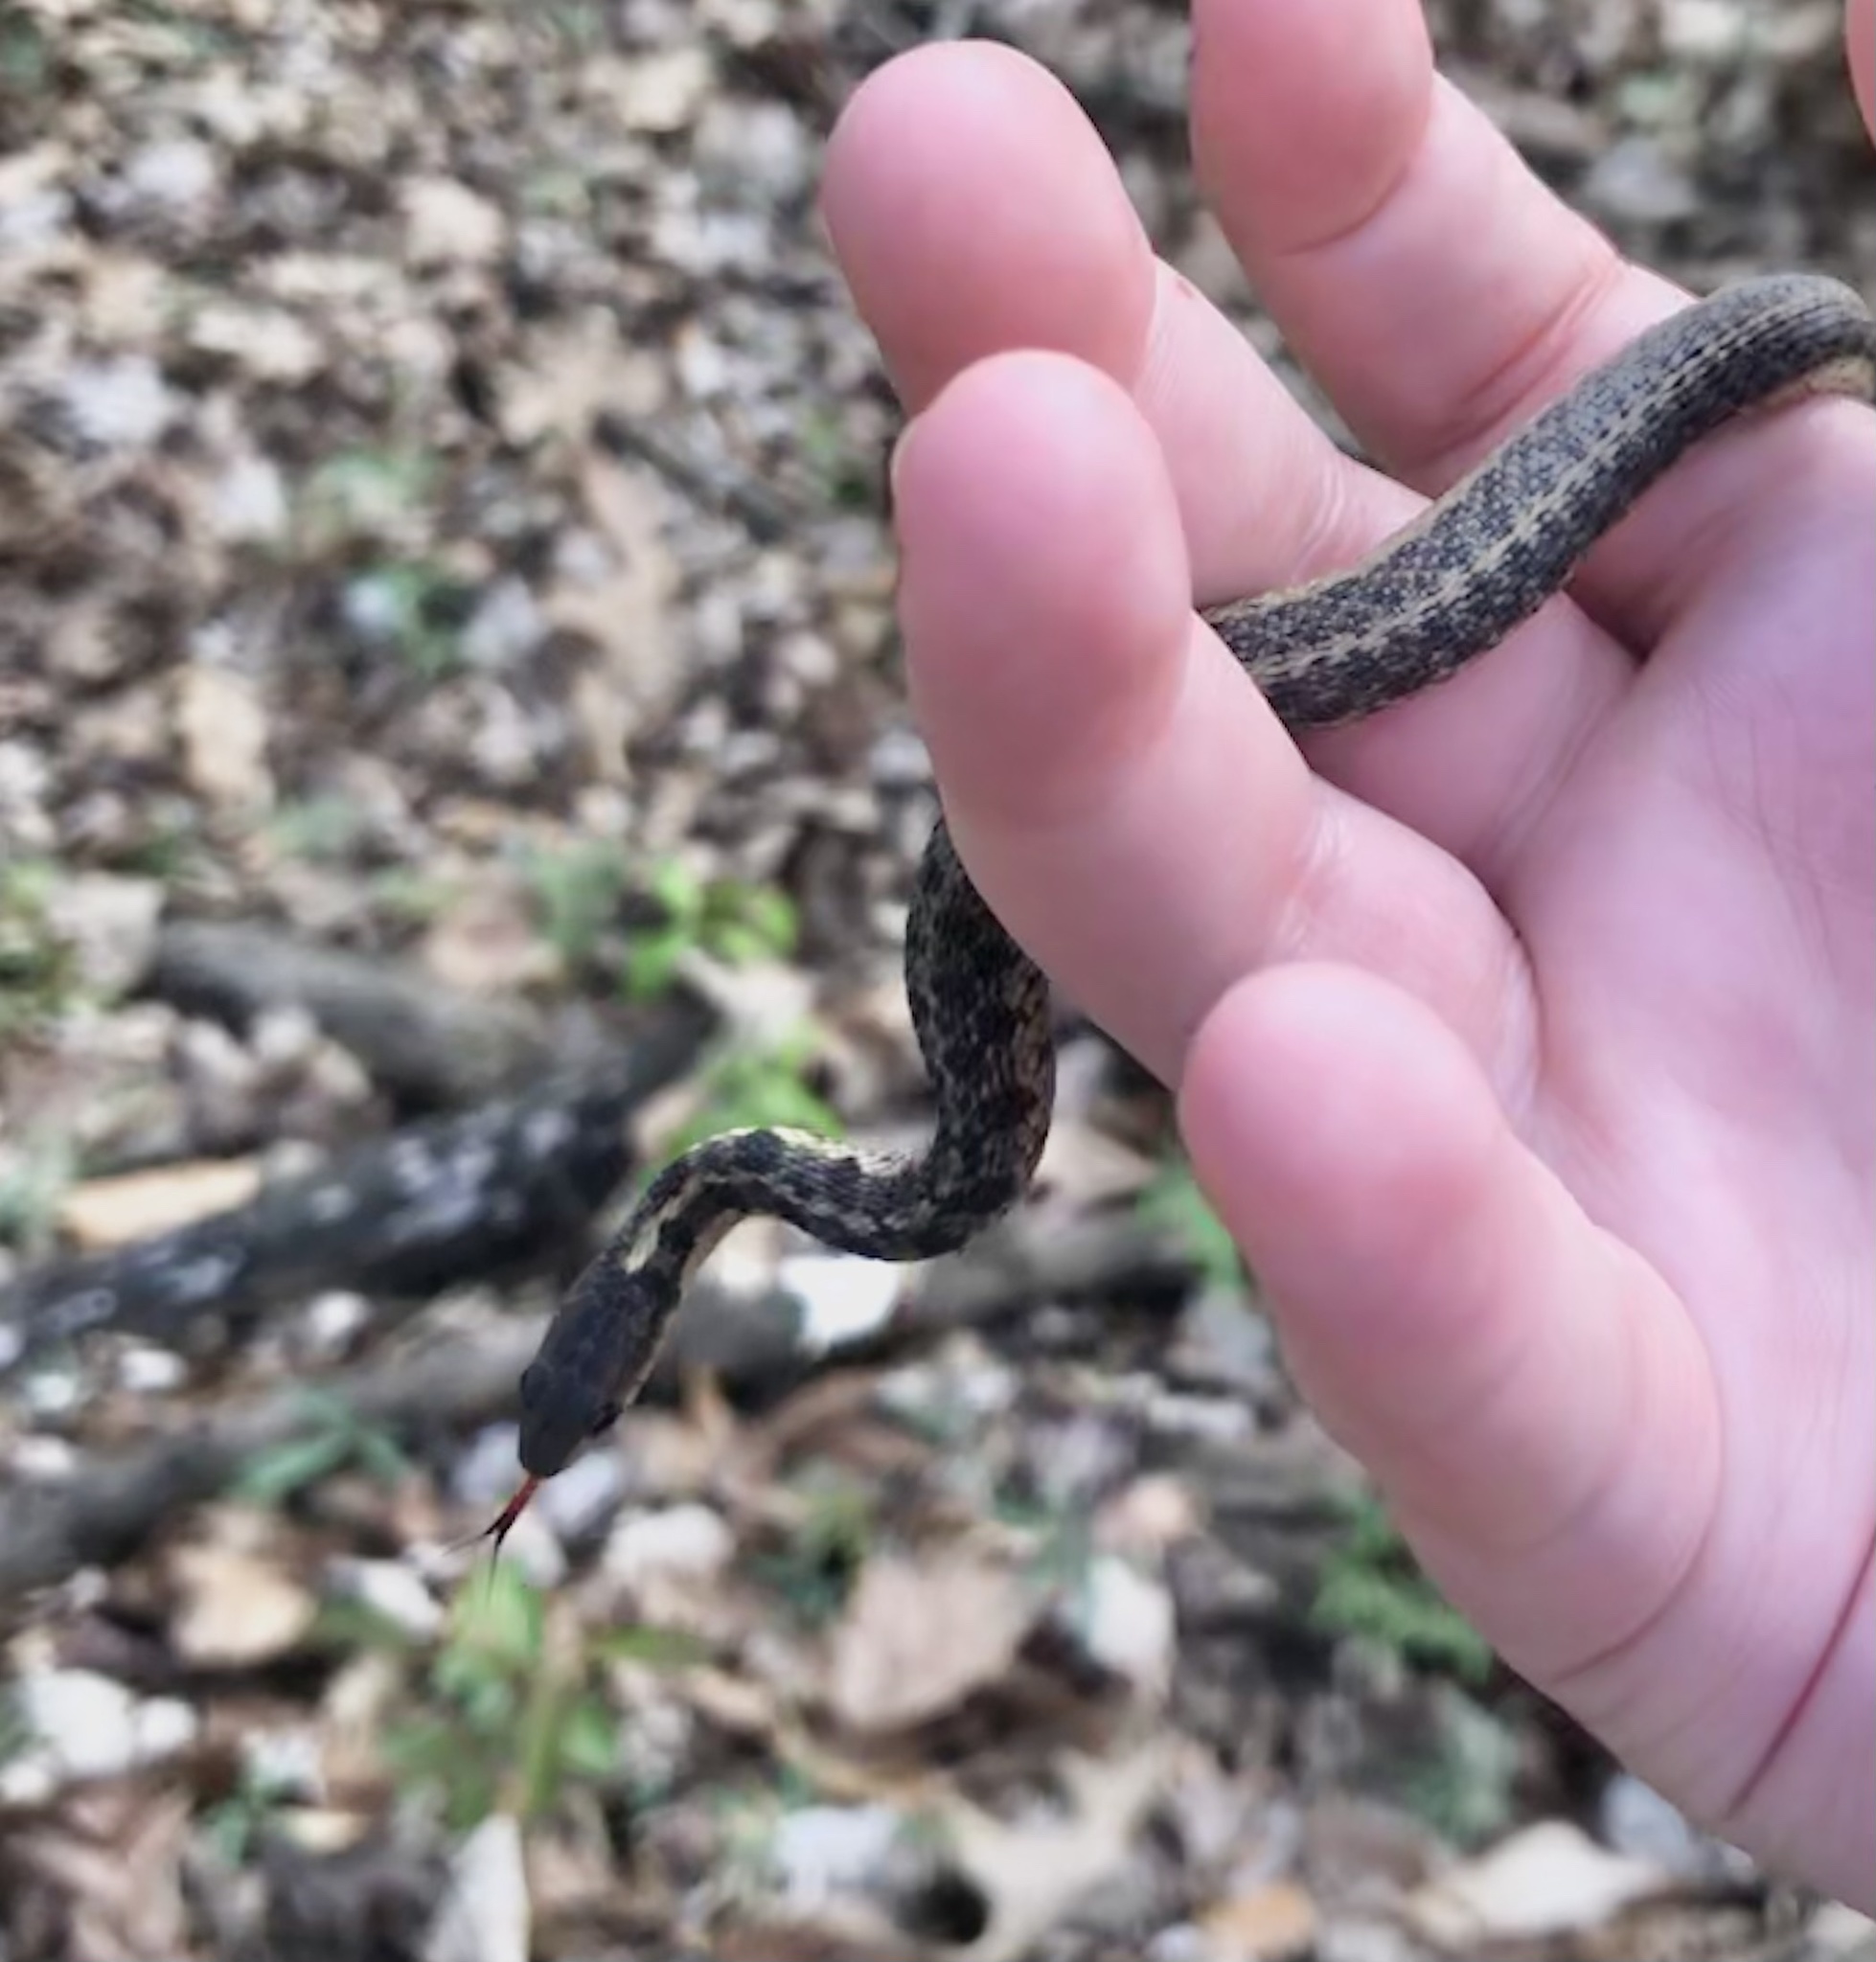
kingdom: Animalia
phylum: Chordata
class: Squamata
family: Colubridae
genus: Thamnophis
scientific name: Thamnophis sirtalis
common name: Common garter snake
